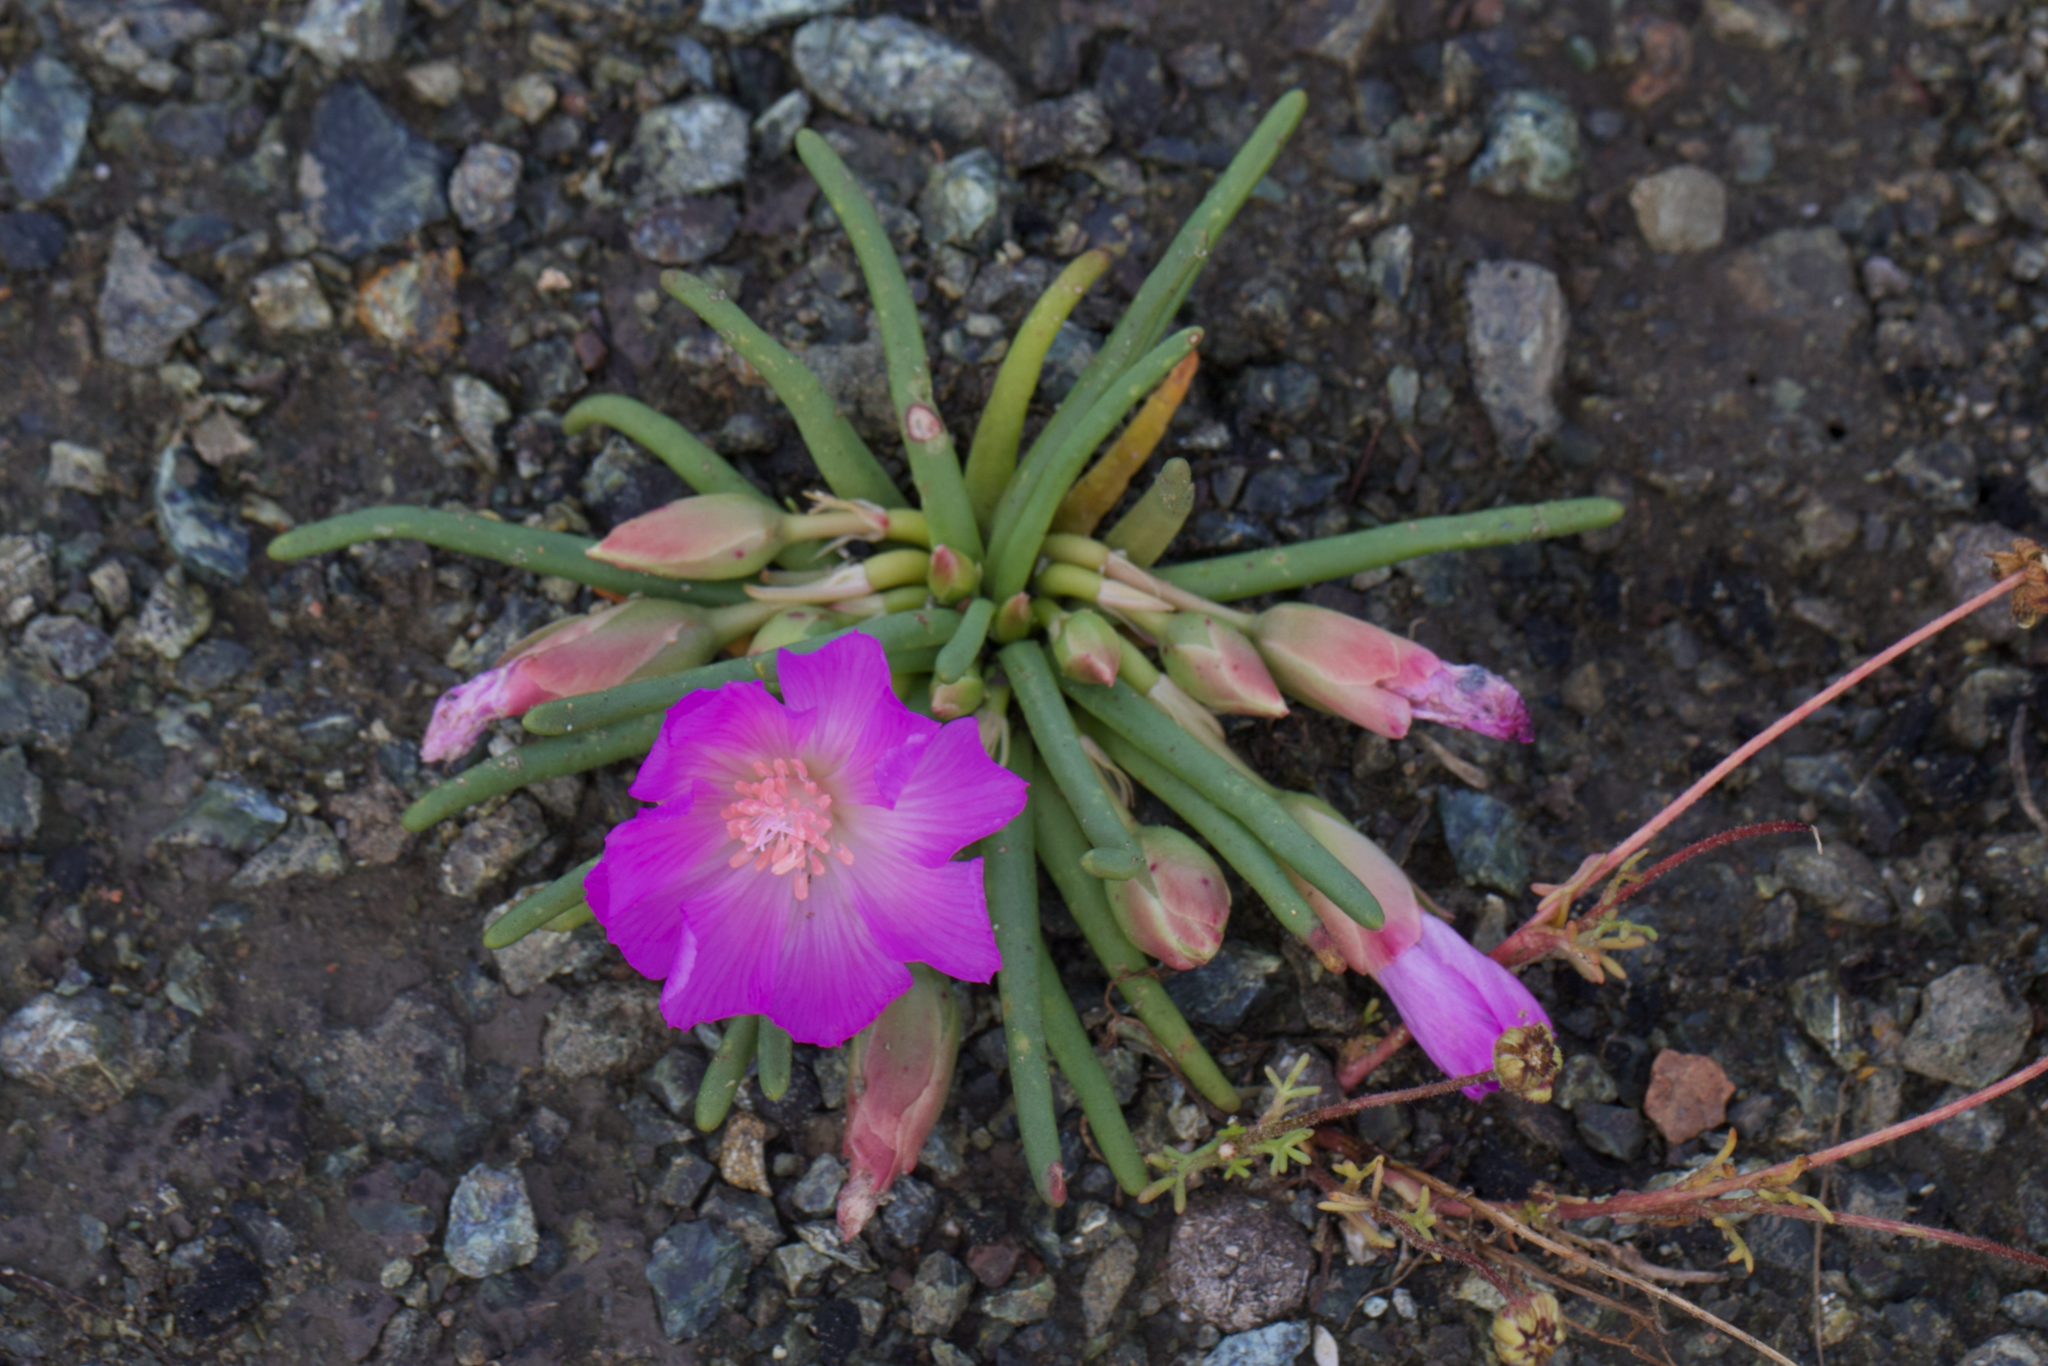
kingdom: Plantae
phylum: Tracheophyta
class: Magnoliopsida
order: Caryophyllales
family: Montiaceae
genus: Lewisia
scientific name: Lewisia rediviva
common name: Bitter-root
